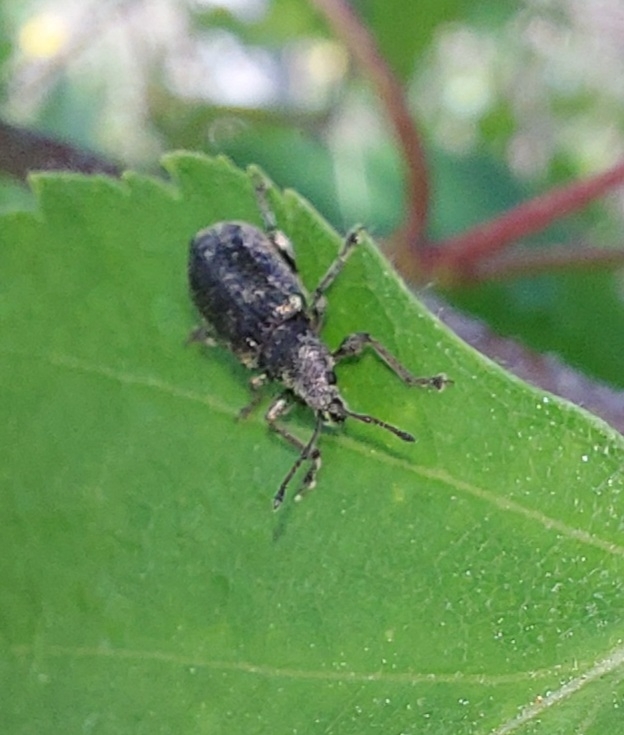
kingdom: Animalia
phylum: Arthropoda
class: Insecta
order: Coleoptera
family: Curculionidae
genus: Phyllobius
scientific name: Phyllobius pyri
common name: Common leaf weevil
